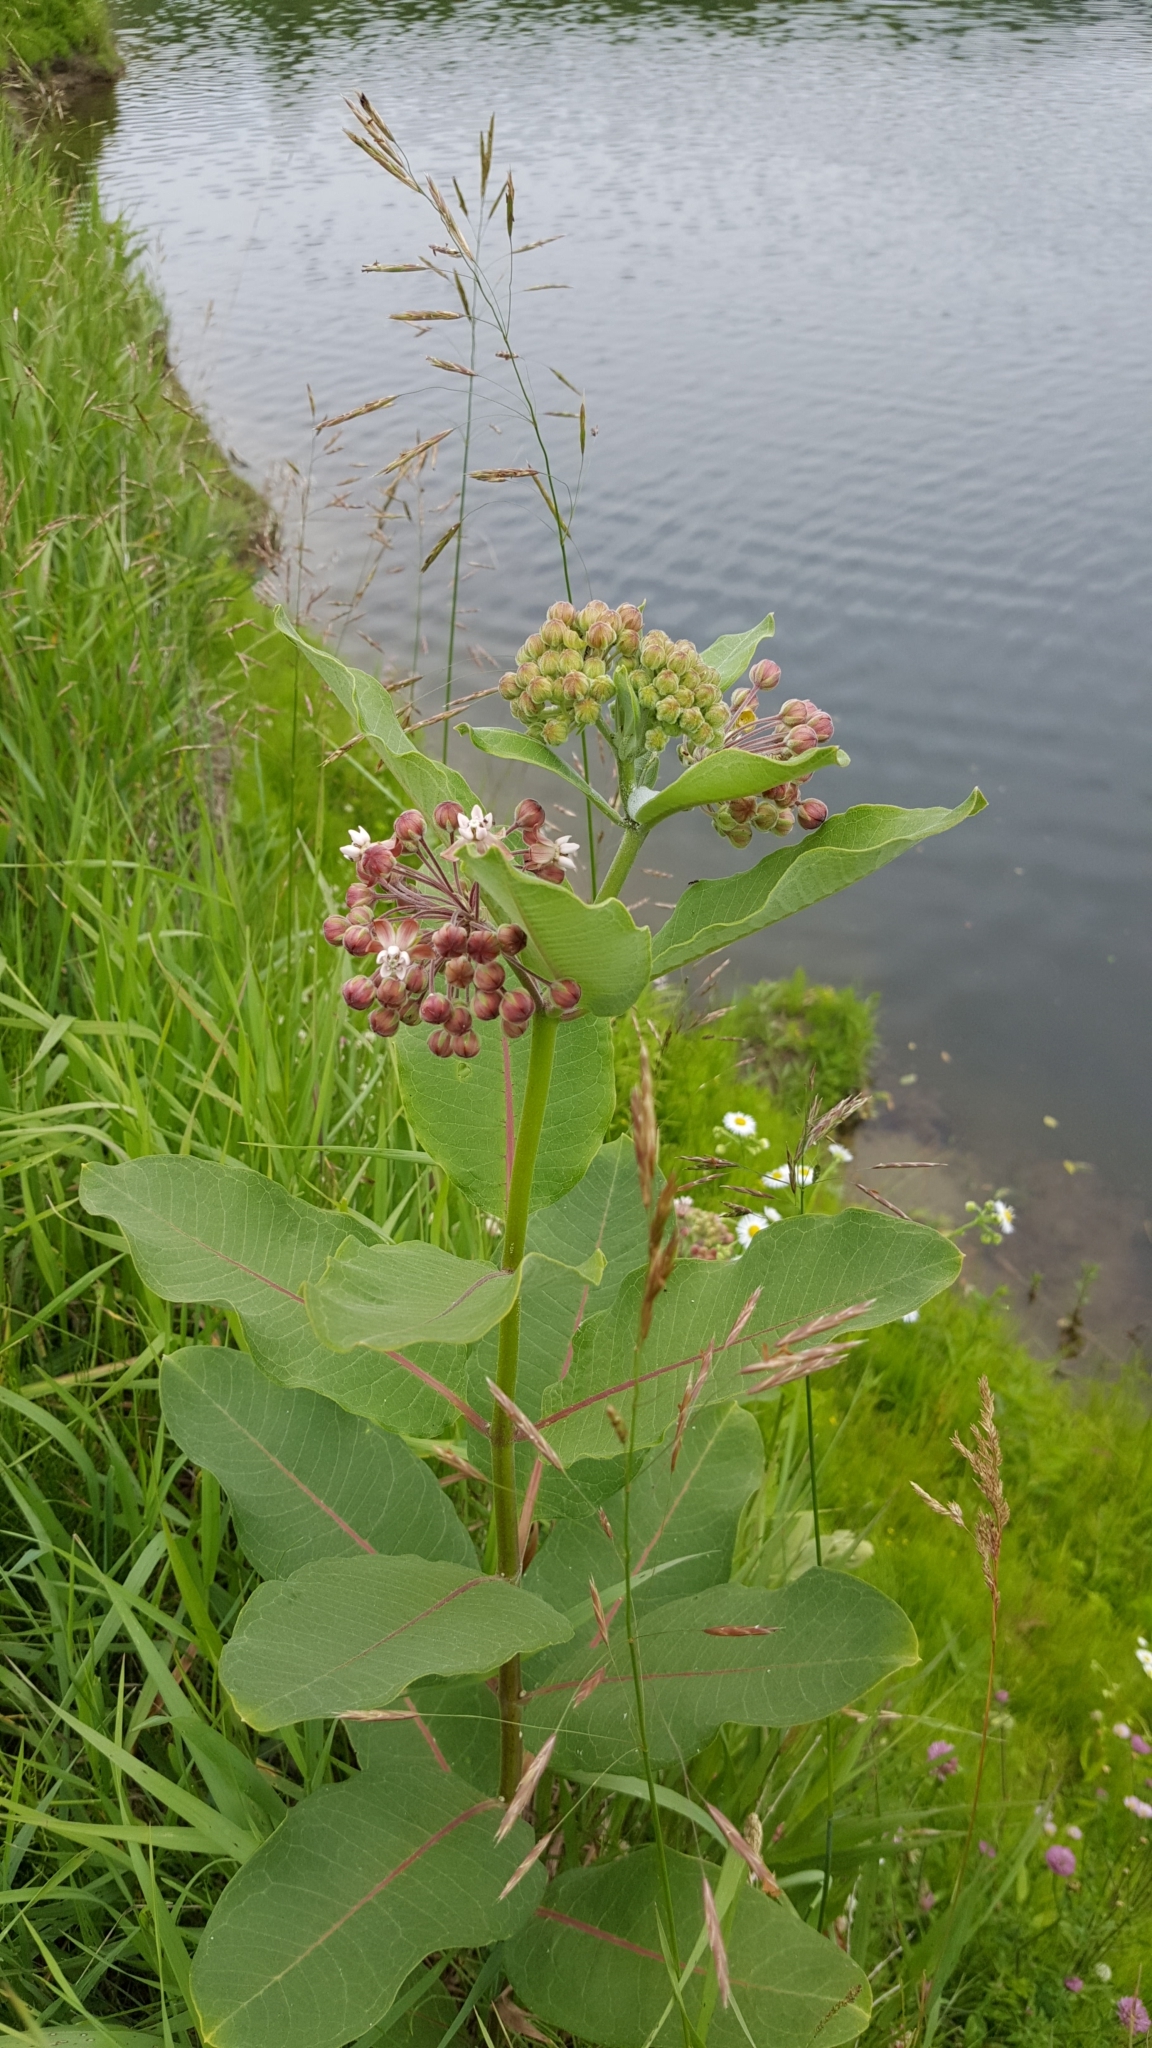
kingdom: Plantae
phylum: Tracheophyta
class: Magnoliopsida
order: Gentianales
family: Apocynaceae
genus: Asclepias
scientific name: Asclepias syriaca
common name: Common milkweed
